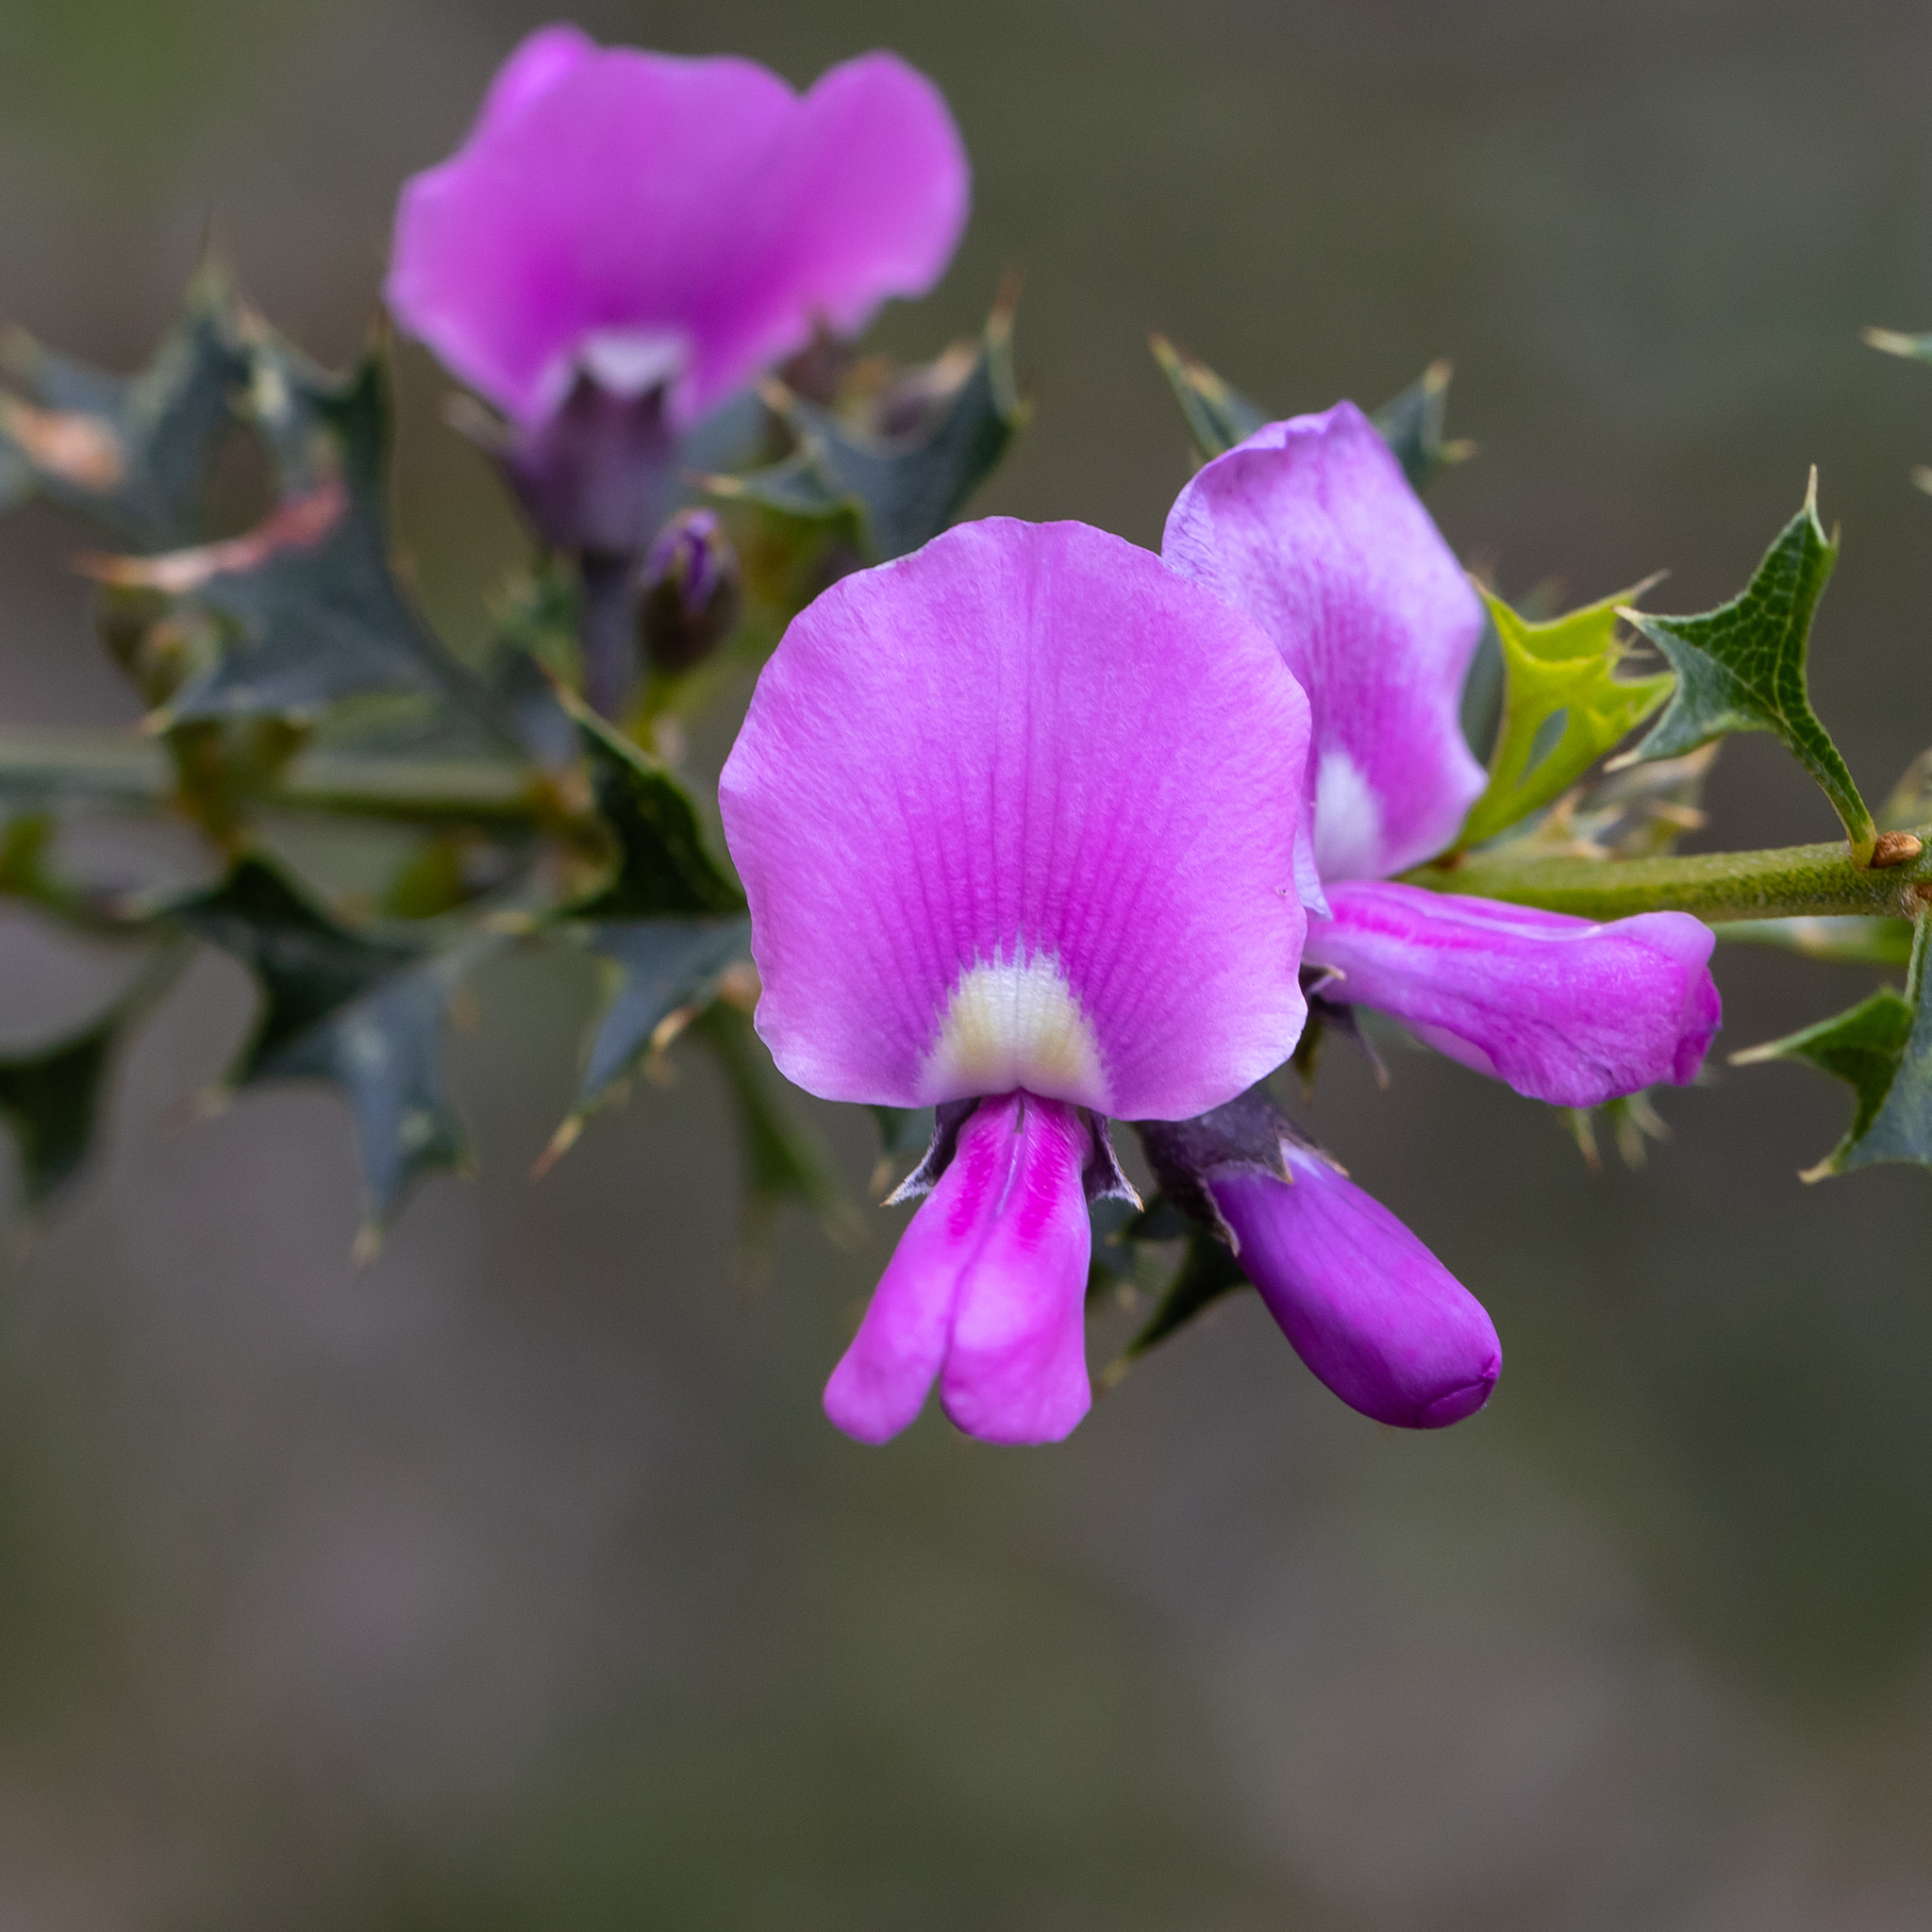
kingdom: Plantae
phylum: Tracheophyta
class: Magnoliopsida
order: Fabales
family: Fabaceae
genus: Mirbelia
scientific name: Mirbelia dilatata
